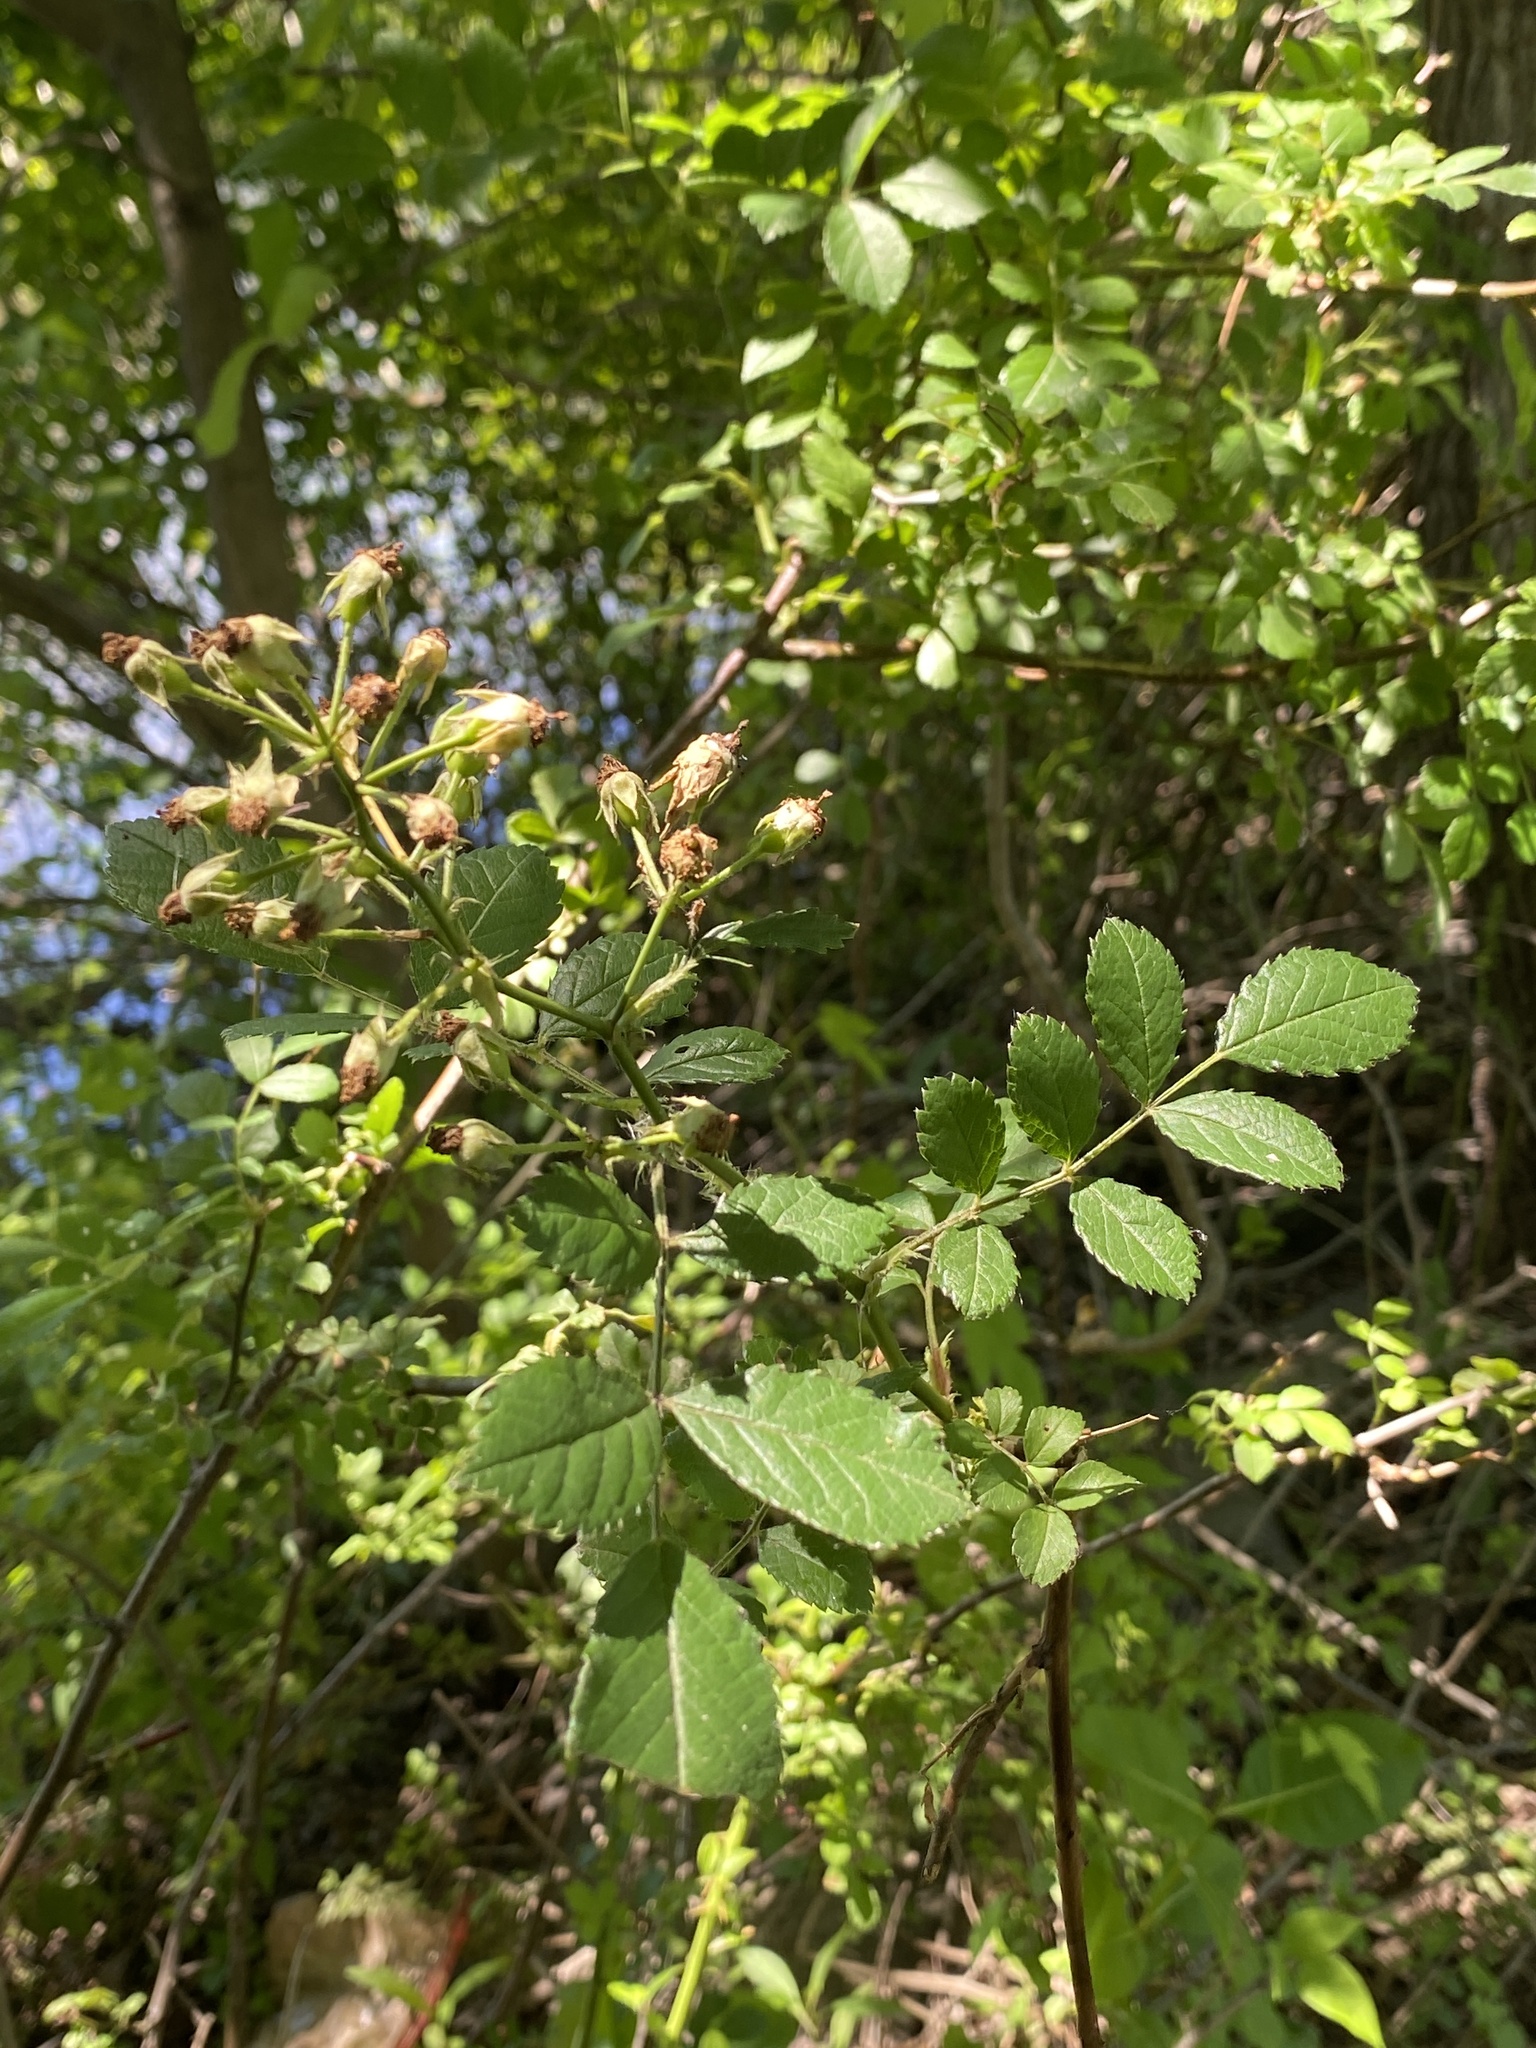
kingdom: Plantae
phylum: Tracheophyta
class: Magnoliopsida
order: Rosales
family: Rosaceae
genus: Rosa
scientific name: Rosa multiflora
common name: Multiflora rose
